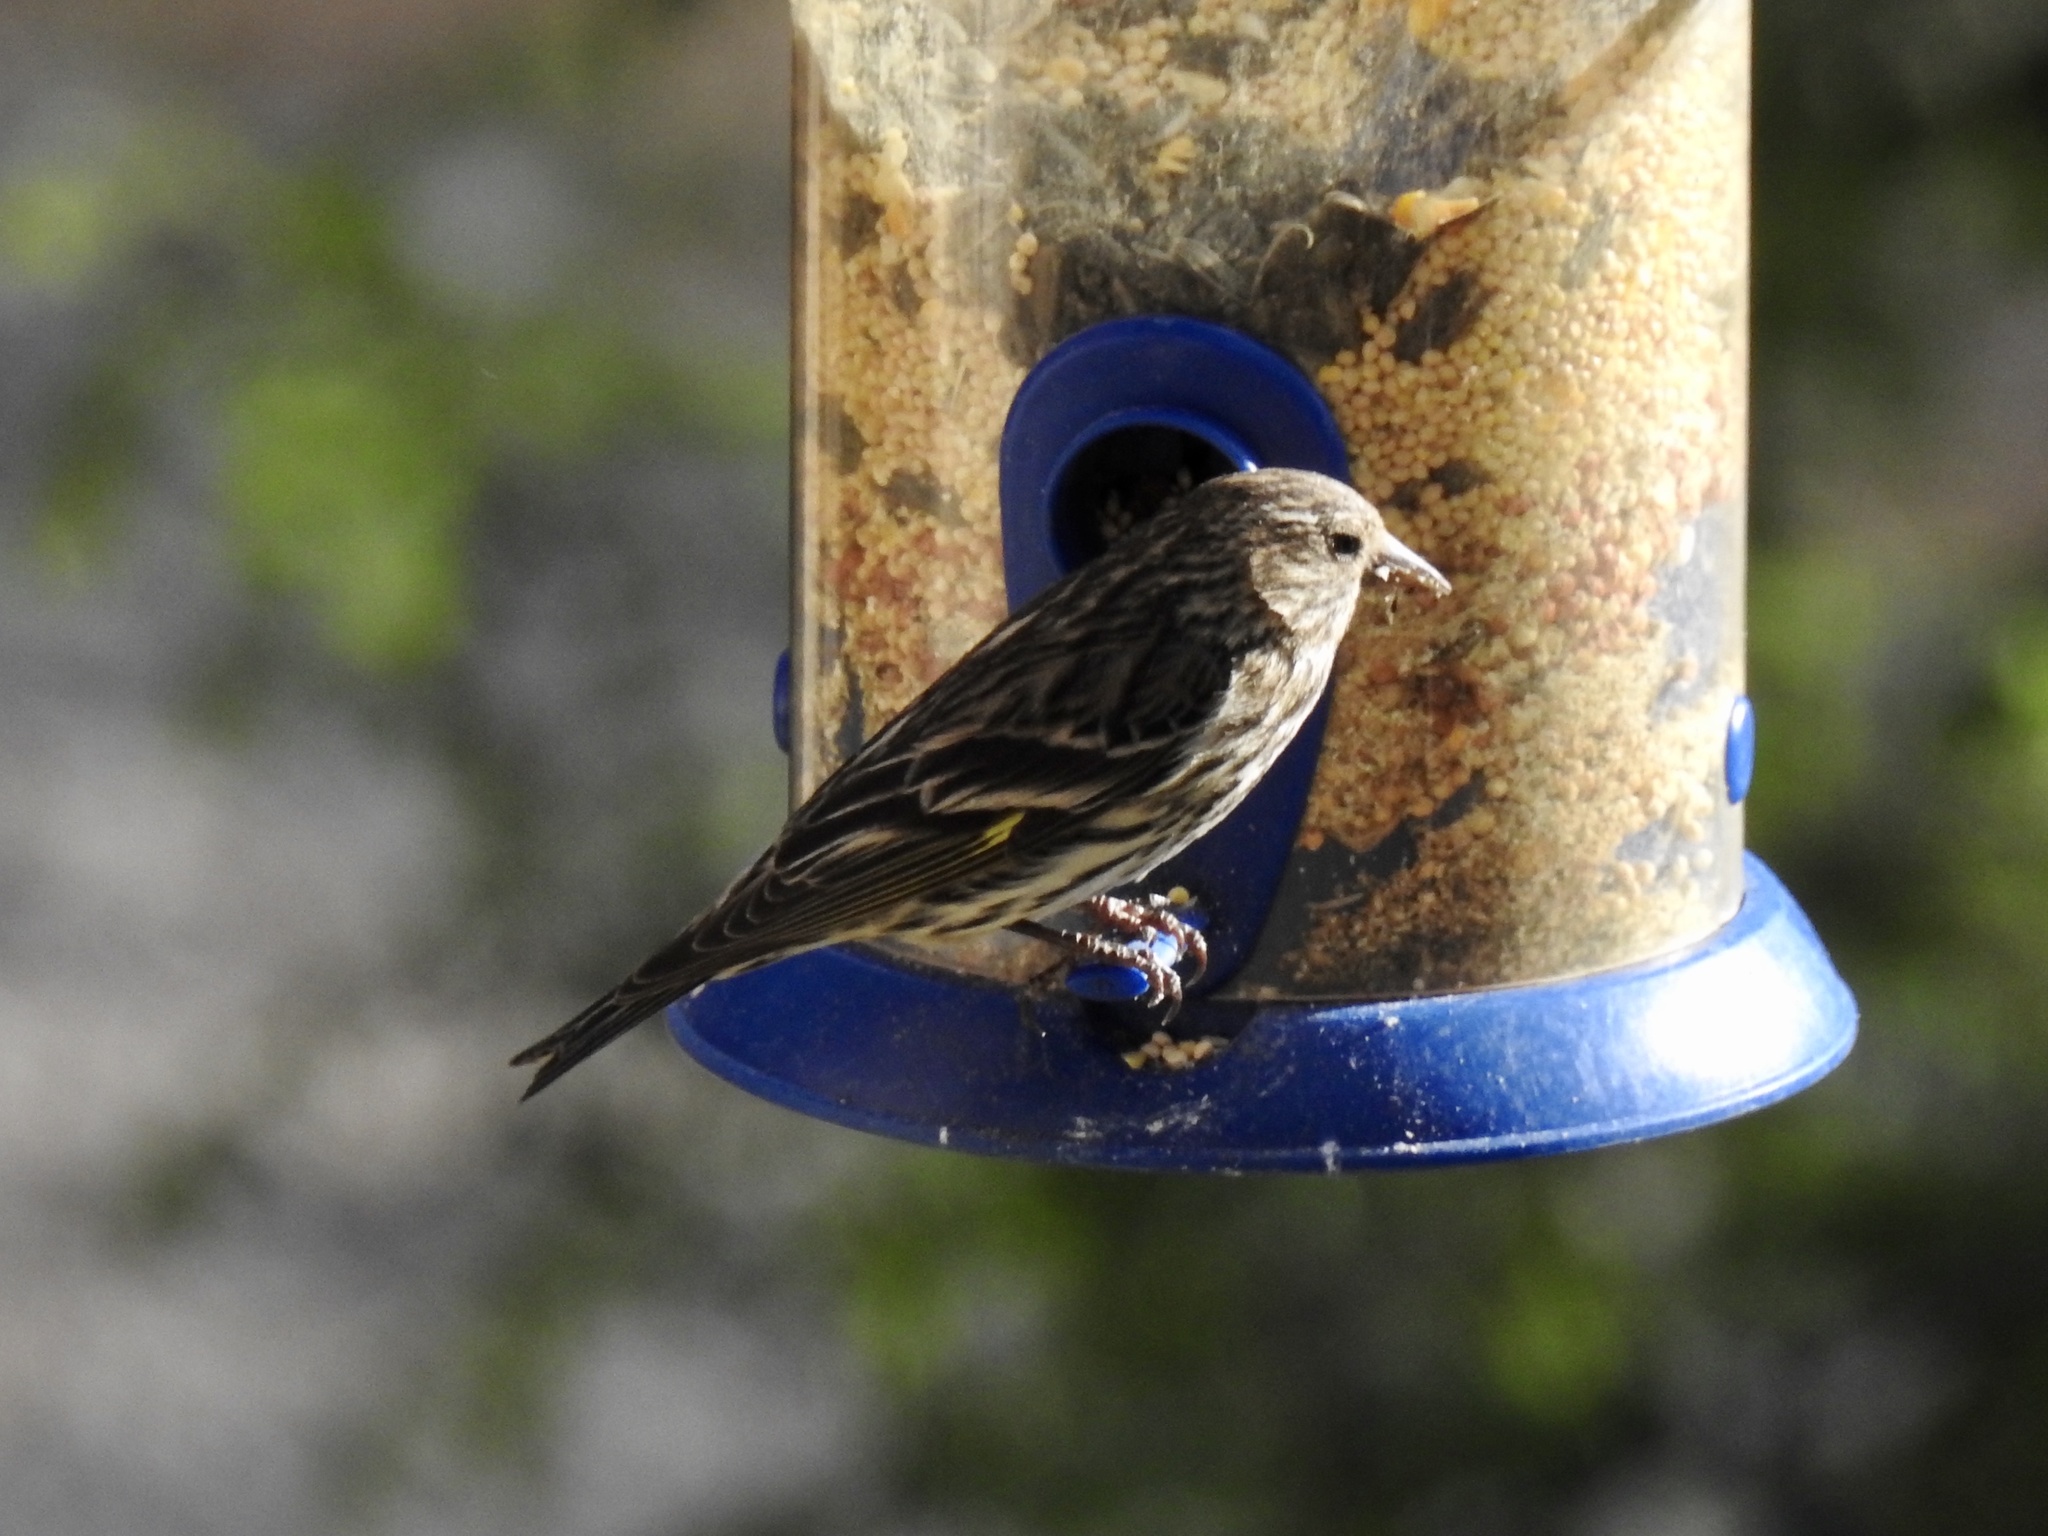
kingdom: Animalia
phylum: Chordata
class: Aves
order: Passeriformes
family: Fringillidae
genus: Spinus
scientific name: Spinus pinus
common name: Pine siskin
